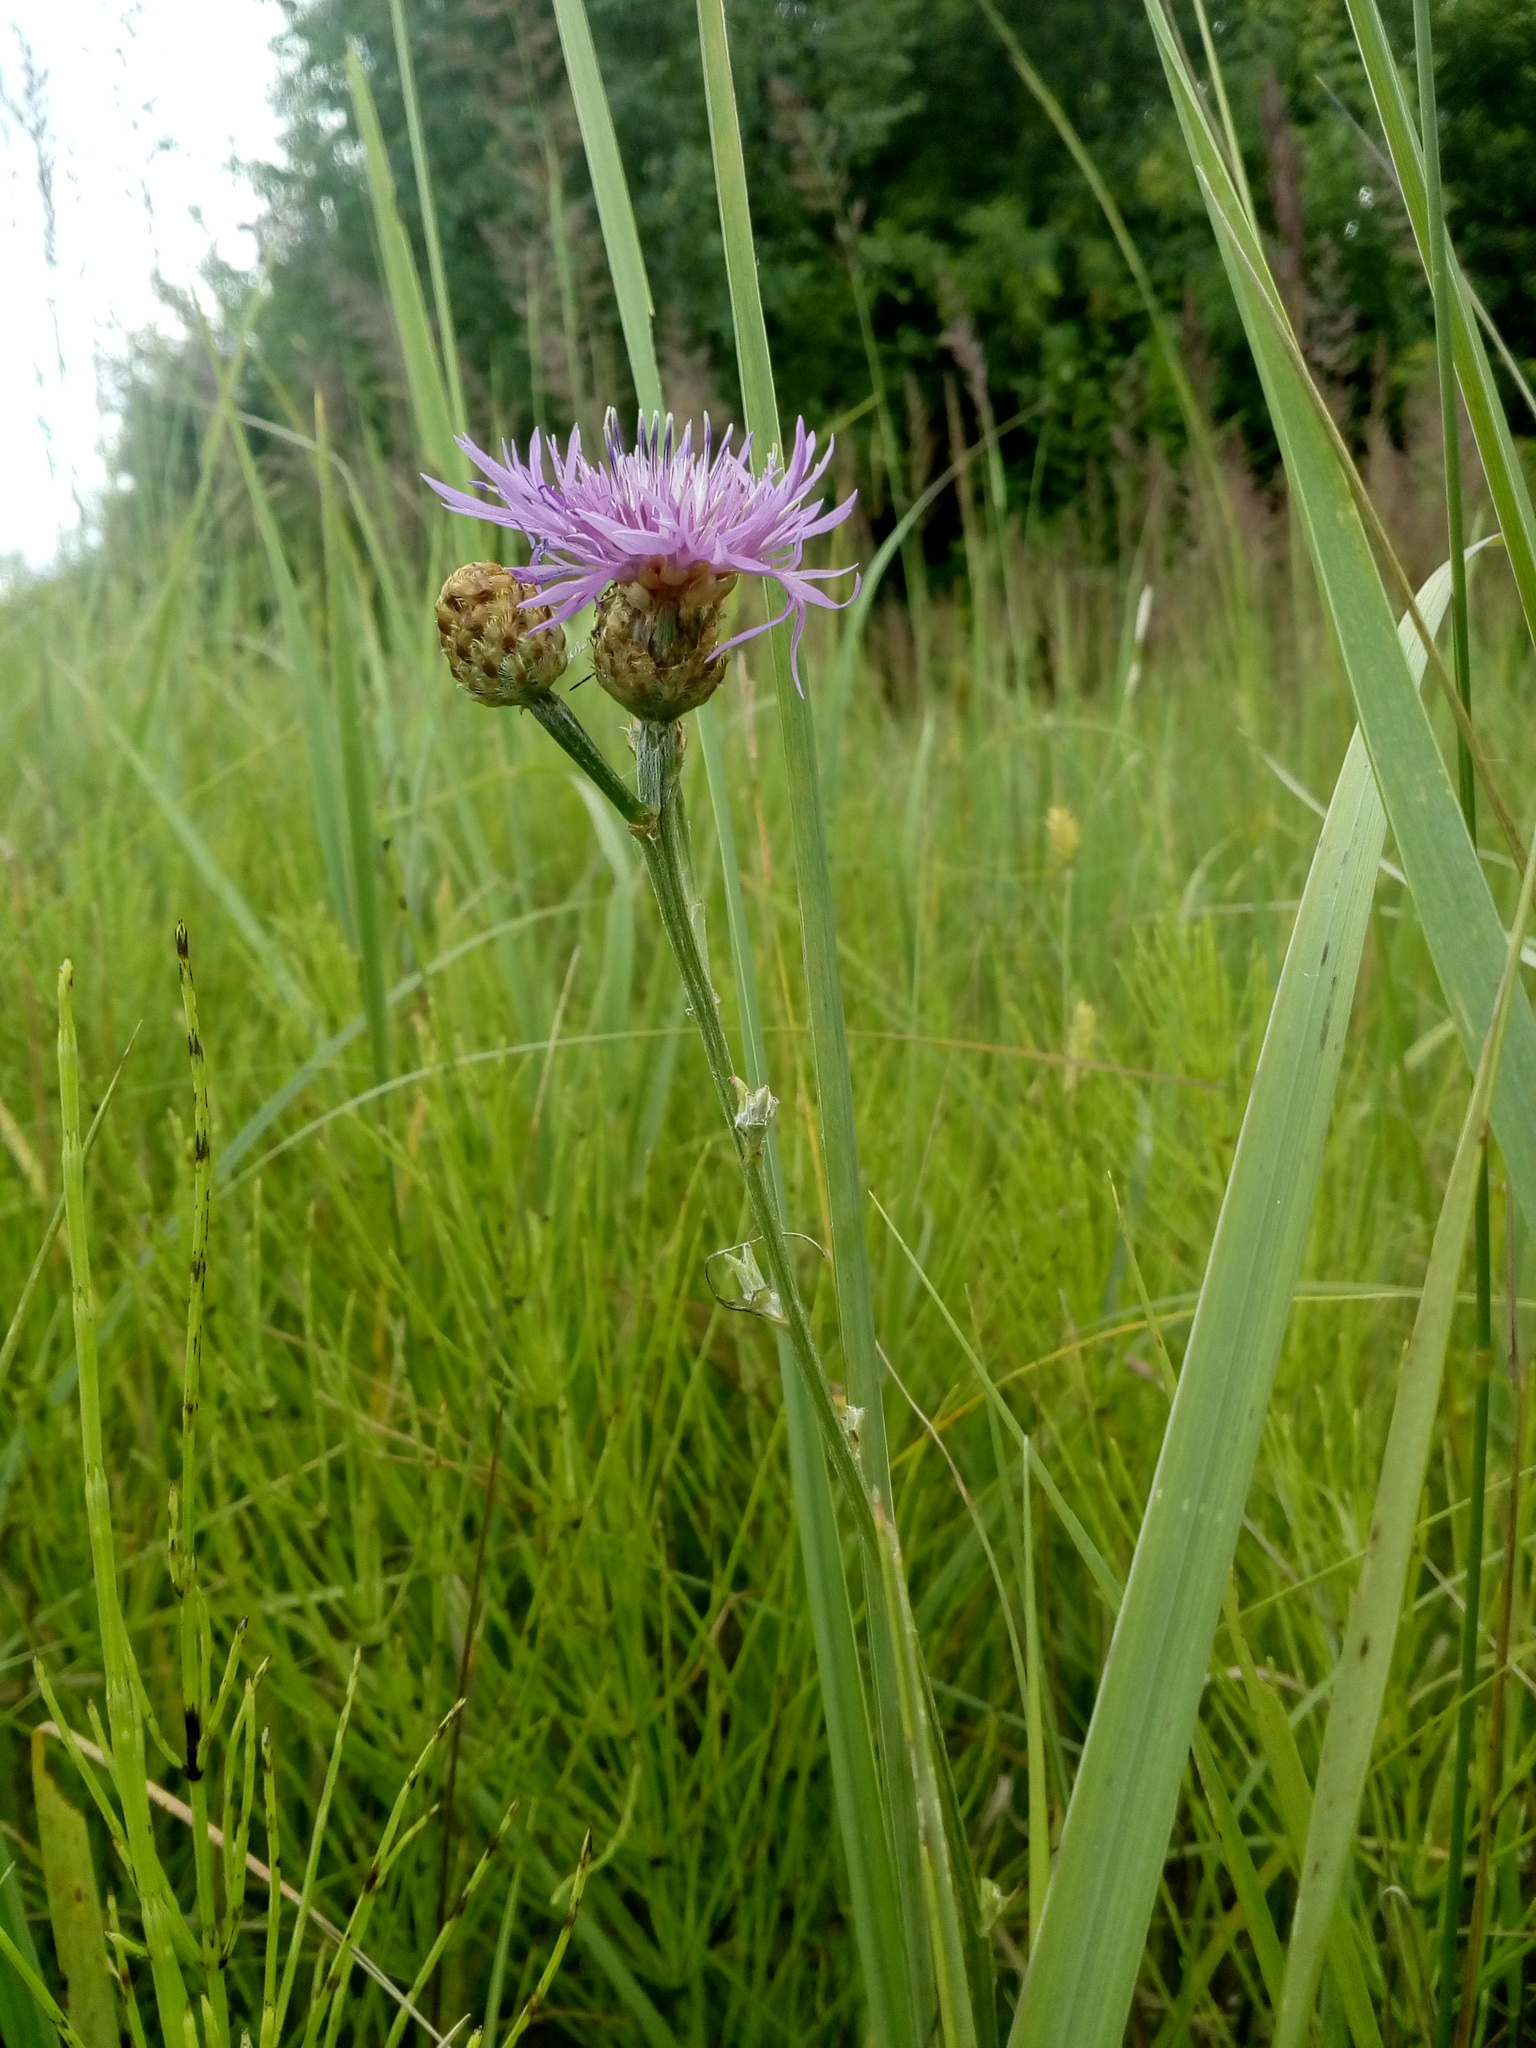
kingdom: Plantae
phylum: Tracheophyta
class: Magnoliopsida
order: Asterales
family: Asteraceae
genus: Centaurea
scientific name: Centaurea jacea
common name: Brown knapweed
